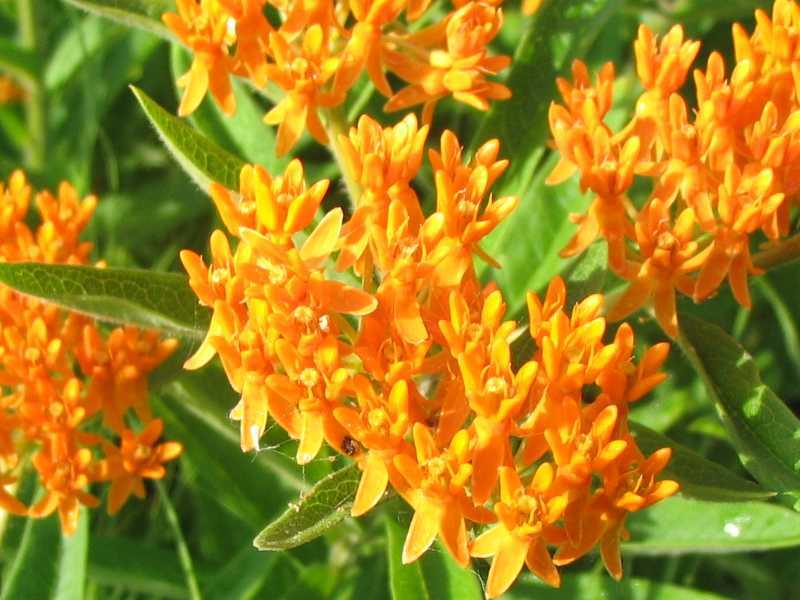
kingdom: Plantae
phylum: Tracheophyta
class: Magnoliopsida
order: Gentianales
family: Apocynaceae
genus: Asclepias
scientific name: Asclepias tuberosa
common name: Butterfly milkweed
